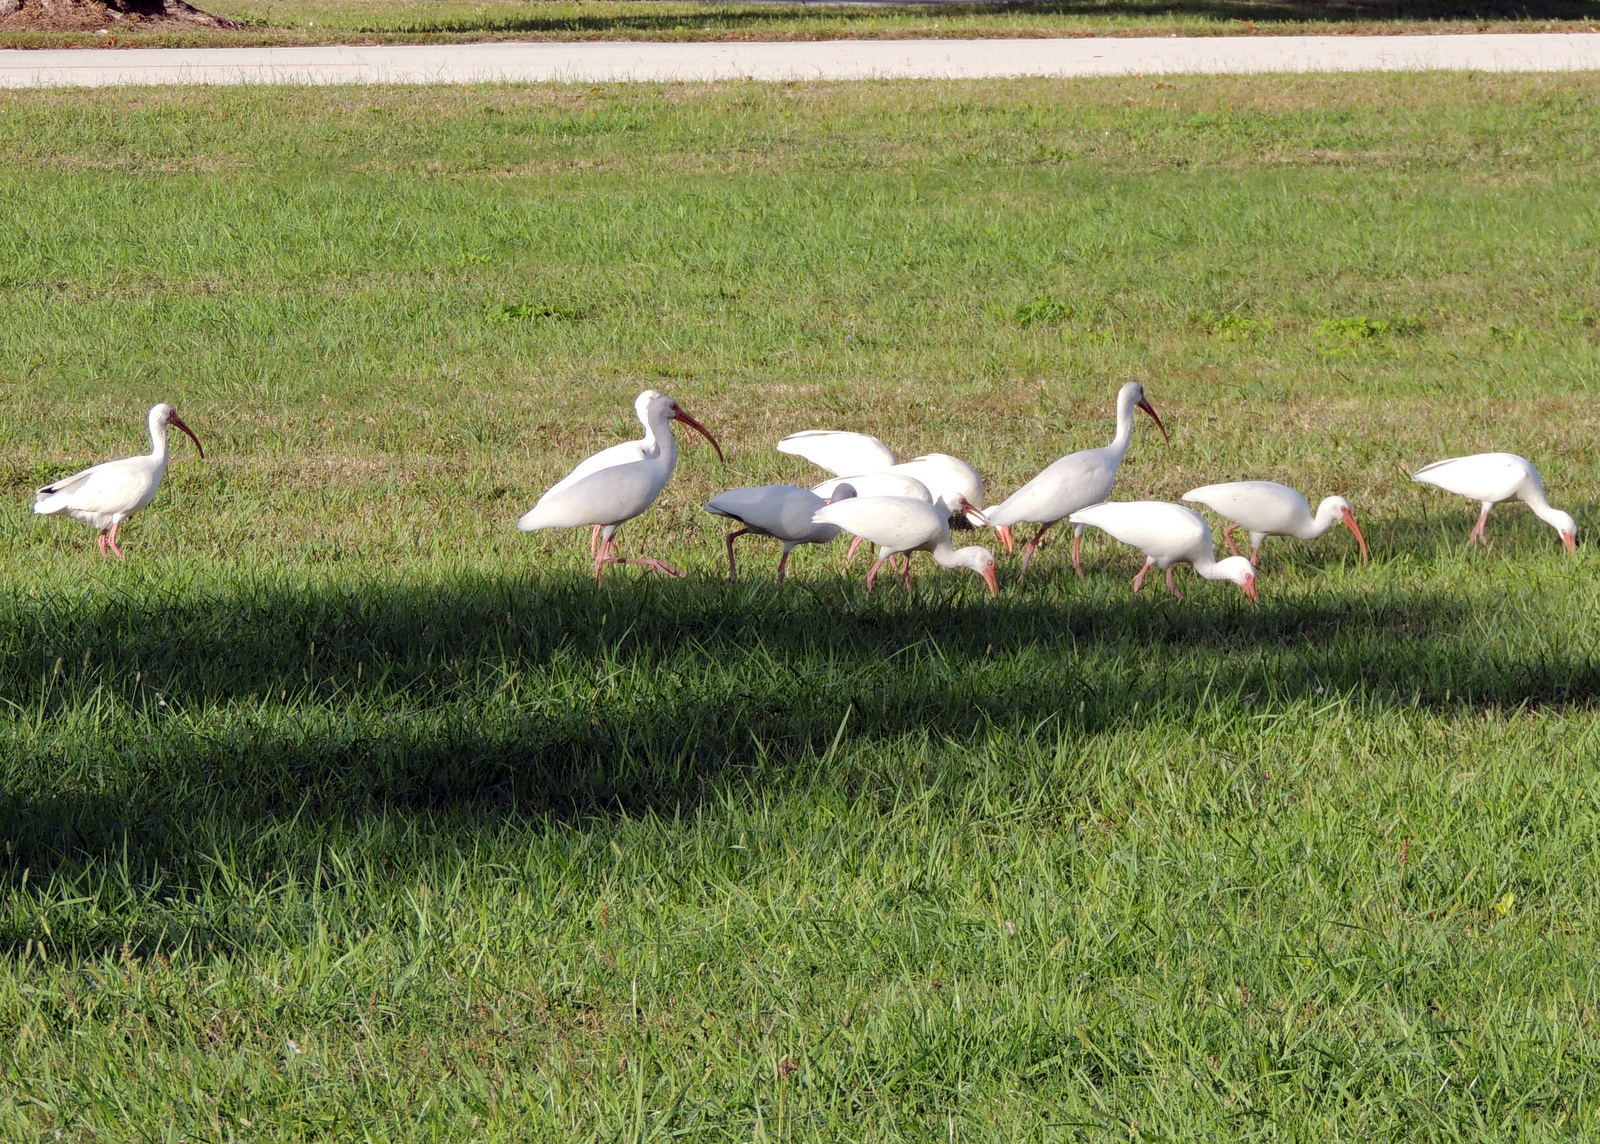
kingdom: Animalia
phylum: Chordata
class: Aves
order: Pelecaniformes
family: Threskiornithidae
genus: Eudocimus
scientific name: Eudocimus albus
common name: White ibis
